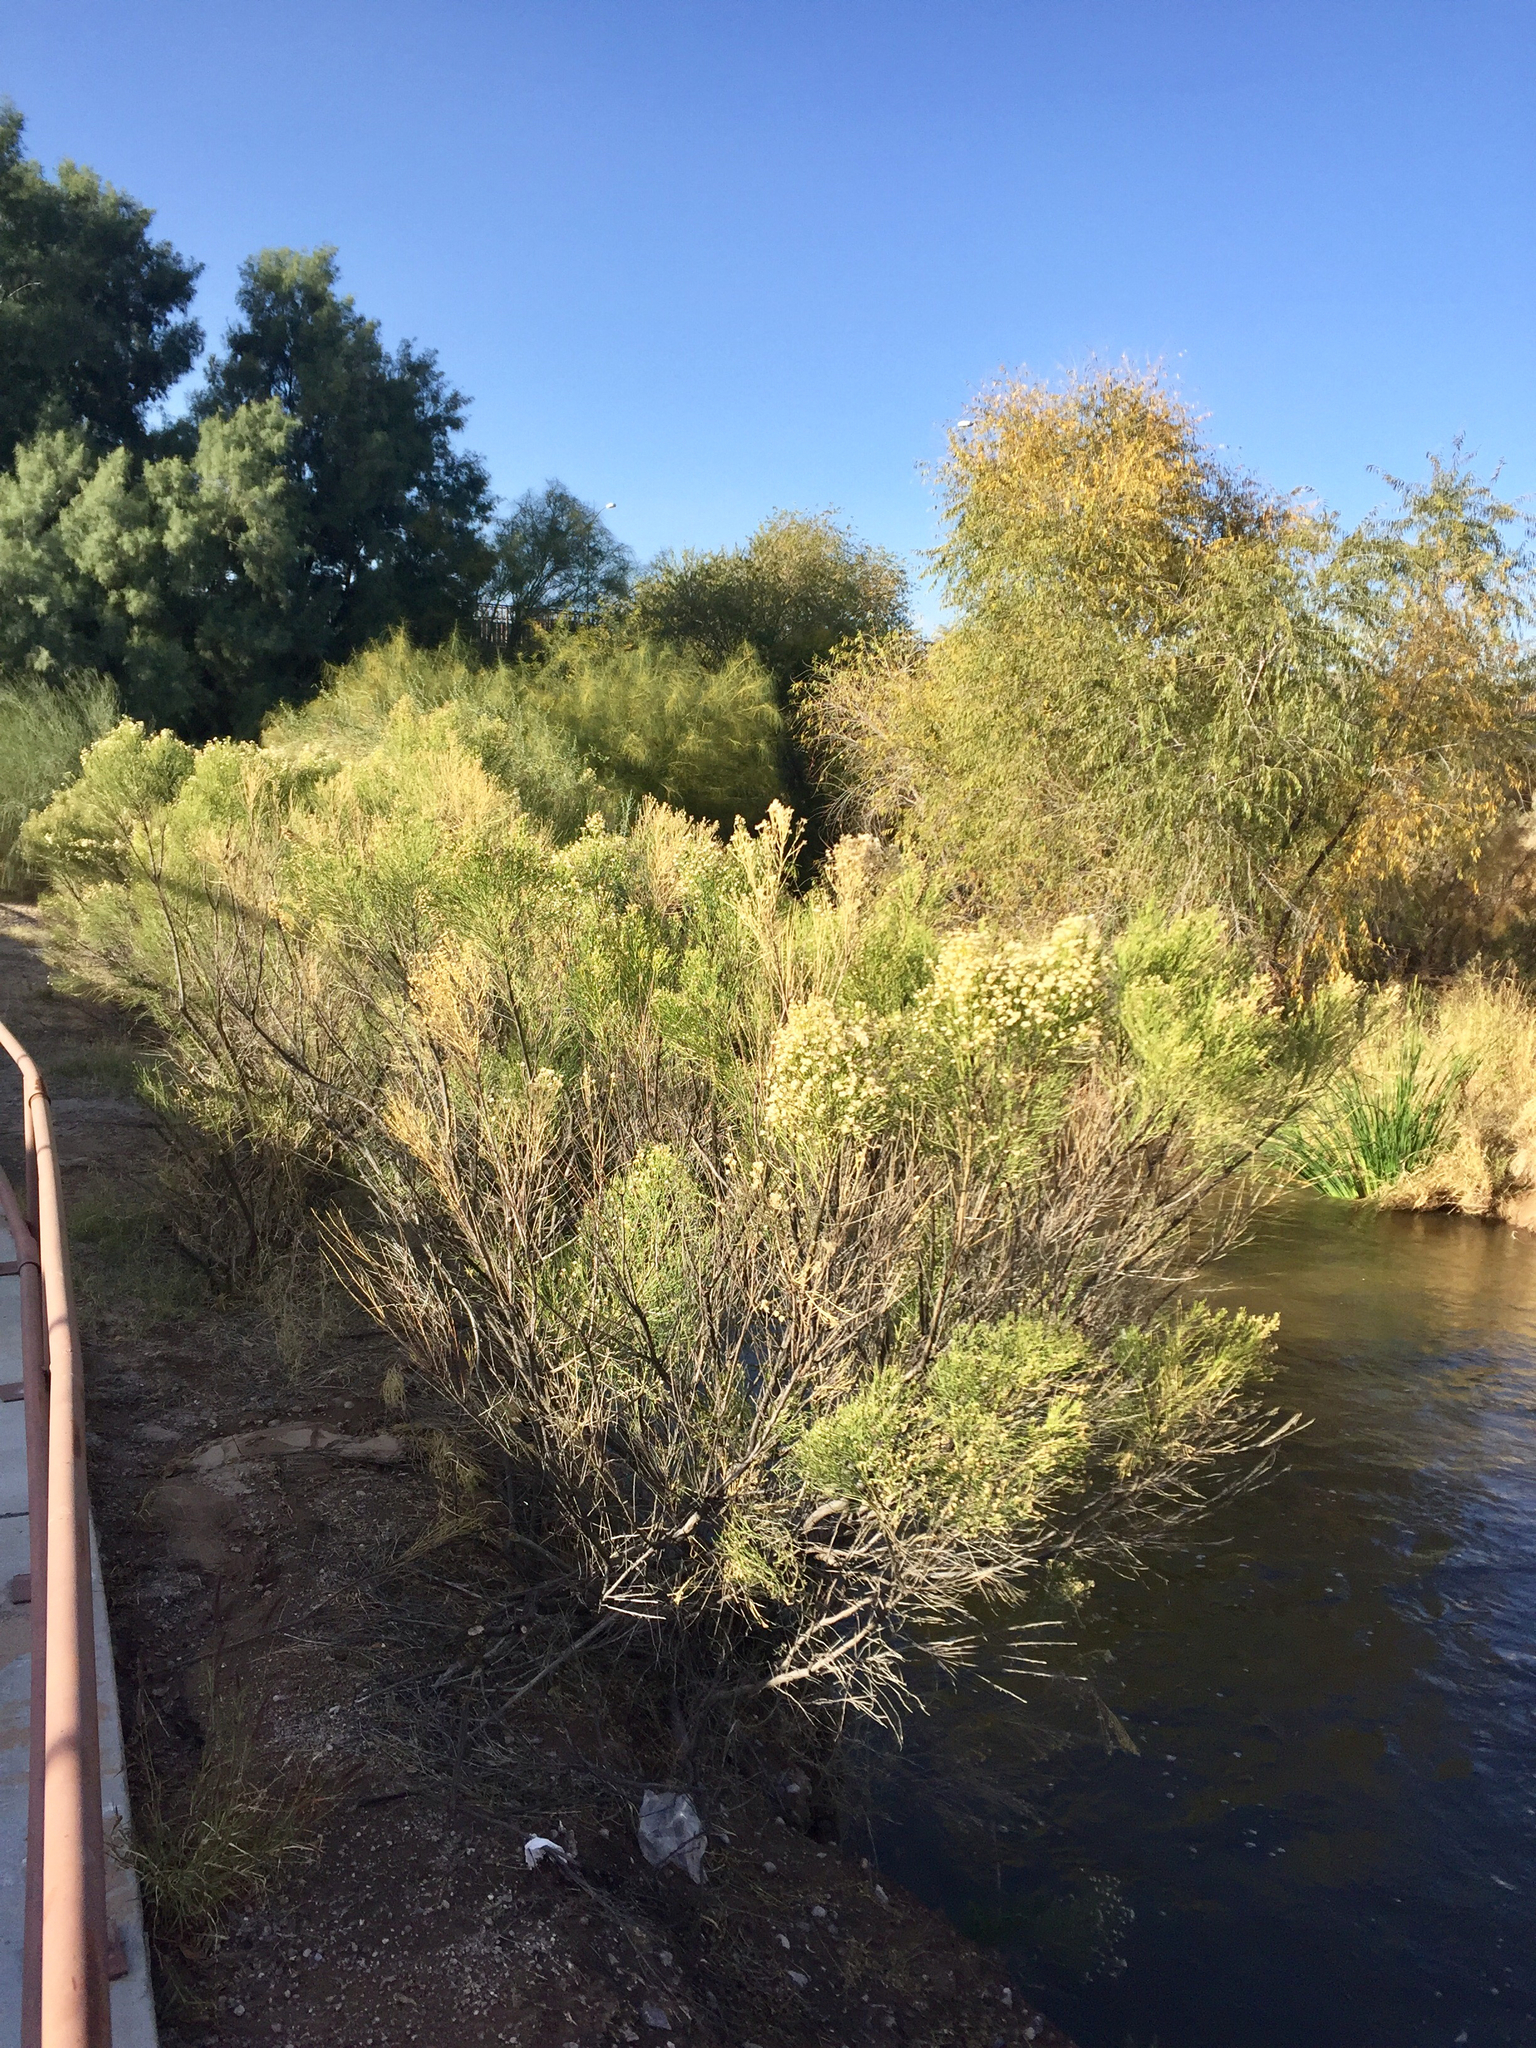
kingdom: Plantae
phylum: Tracheophyta
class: Magnoliopsida
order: Asterales
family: Asteraceae
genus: Baccharis
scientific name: Baccharis sarothroides
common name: Desert-broom
